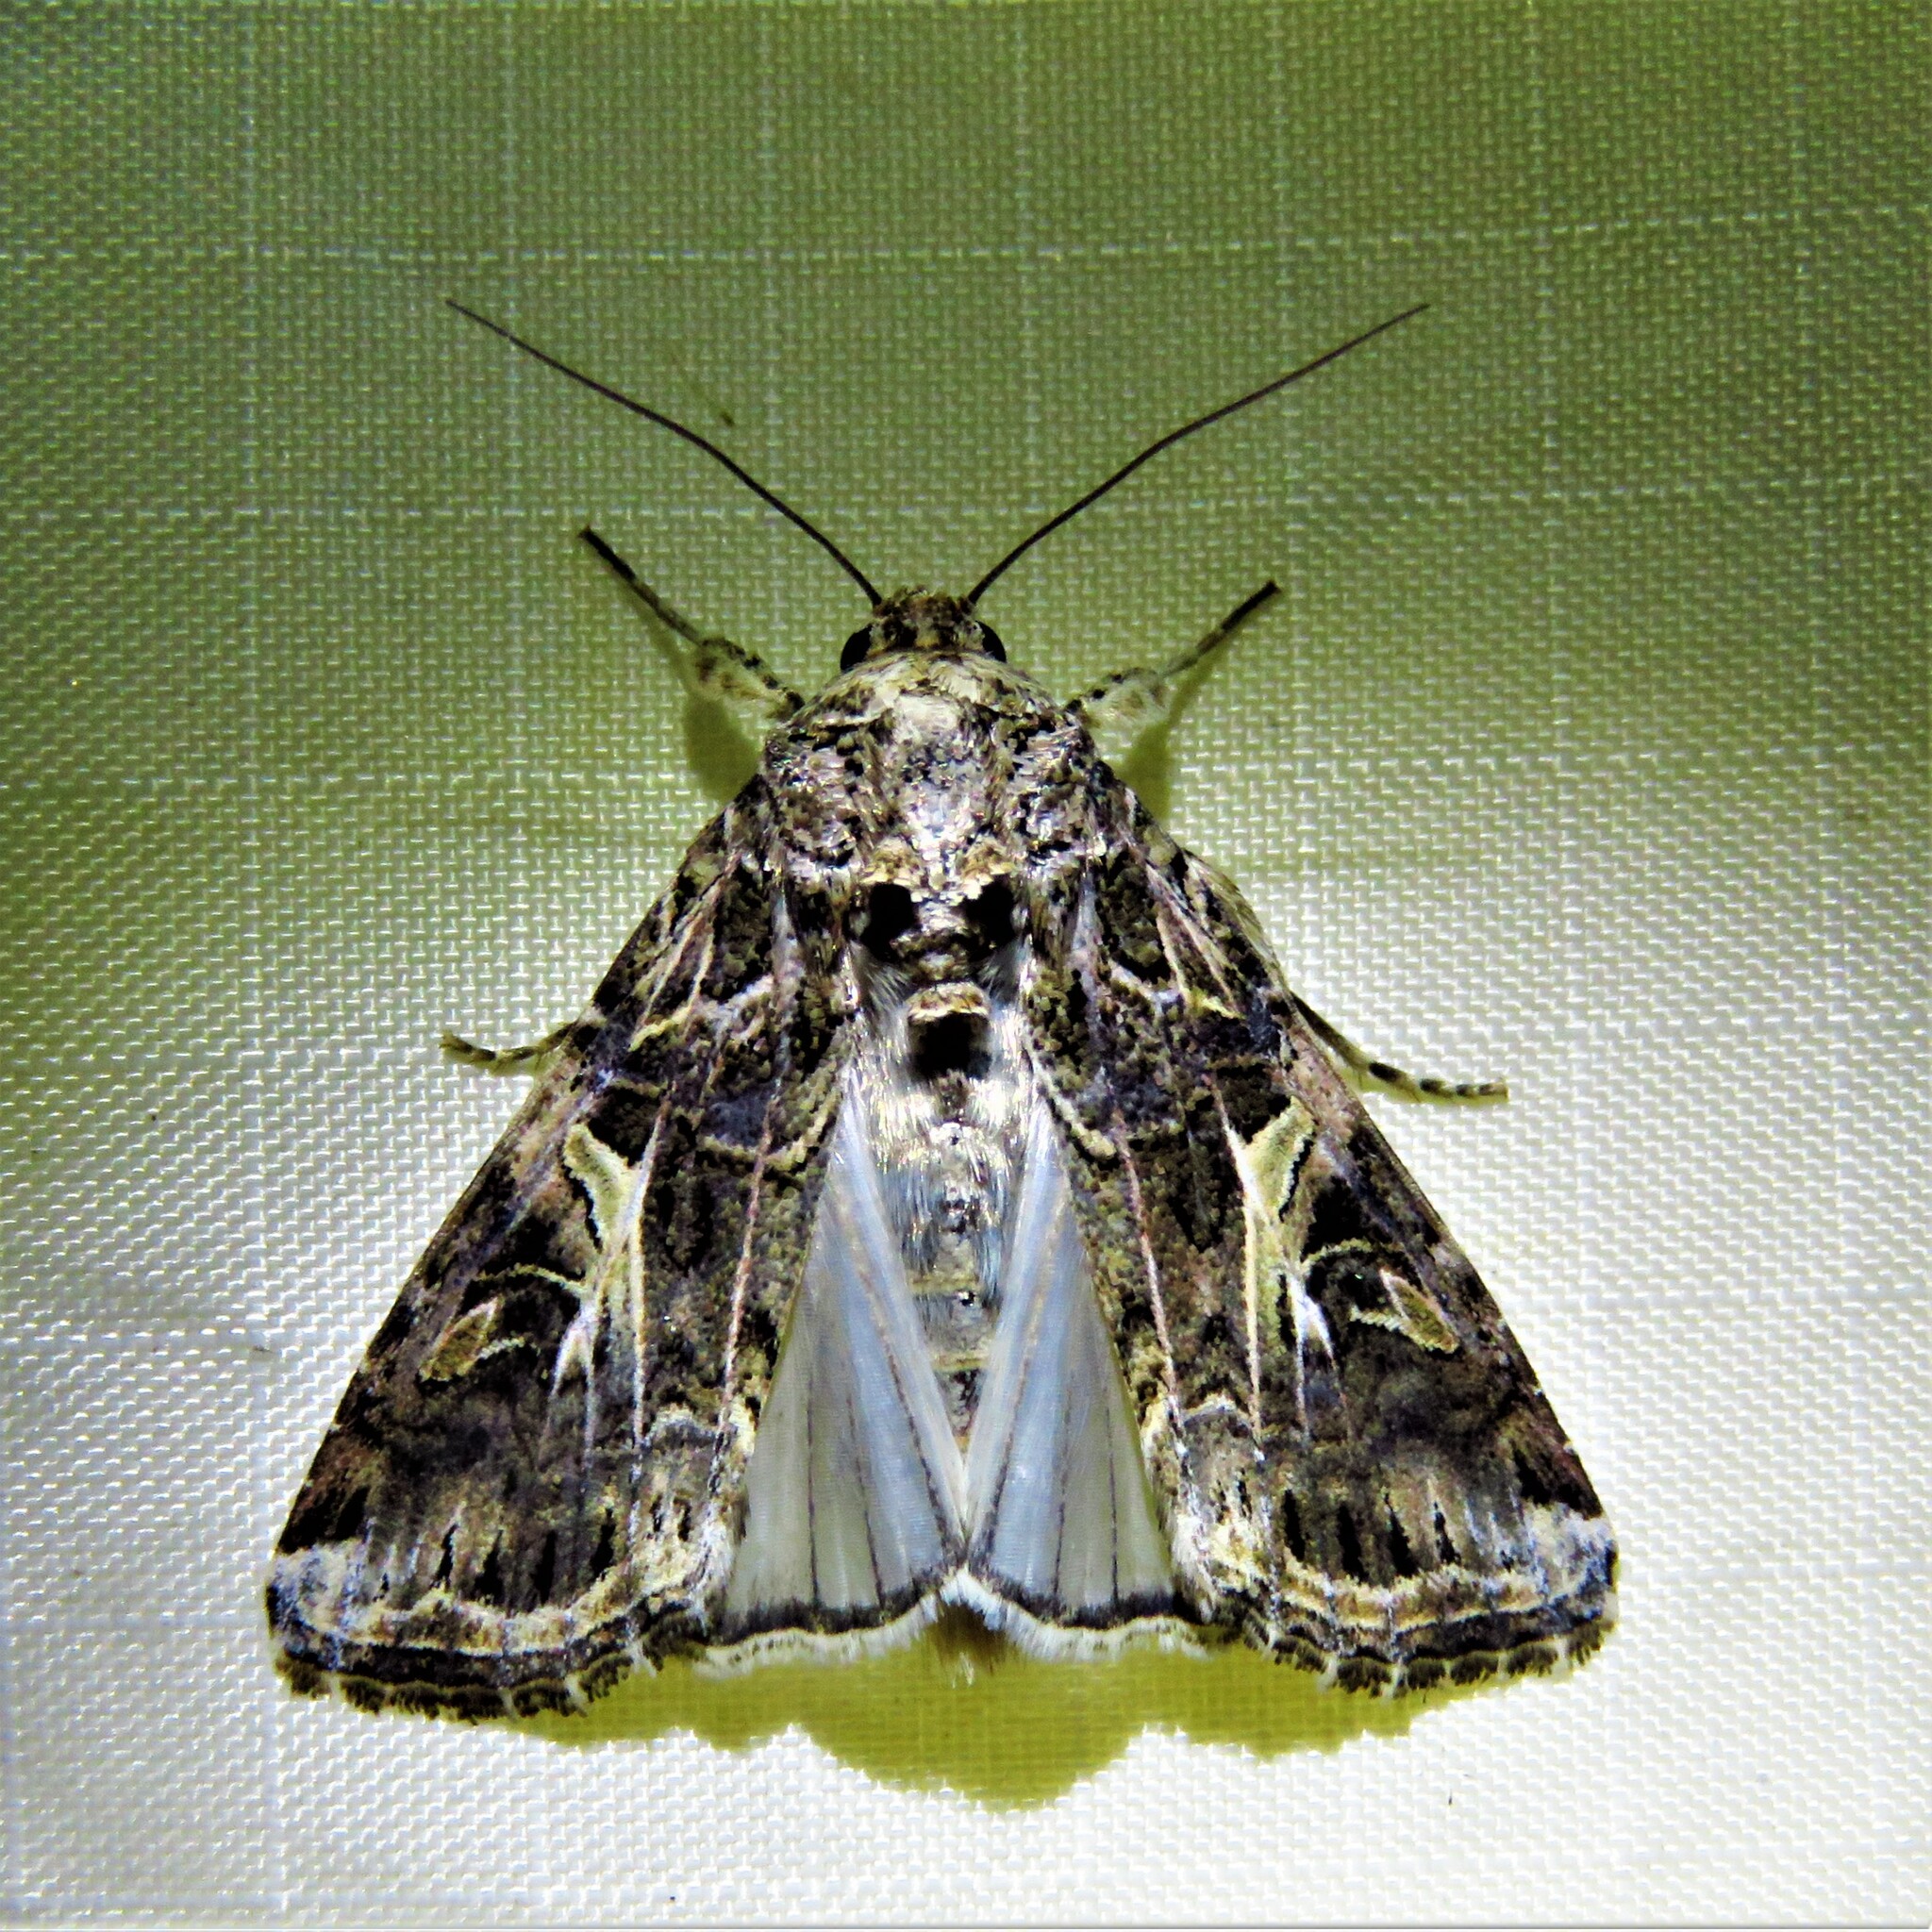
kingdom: Animalia
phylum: Arthropoda
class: Insecta
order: Lepidoptera
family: Noctuidae
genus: Spodoptera
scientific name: Spodoptera ornithogalli
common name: Yellow-striped armyworm
